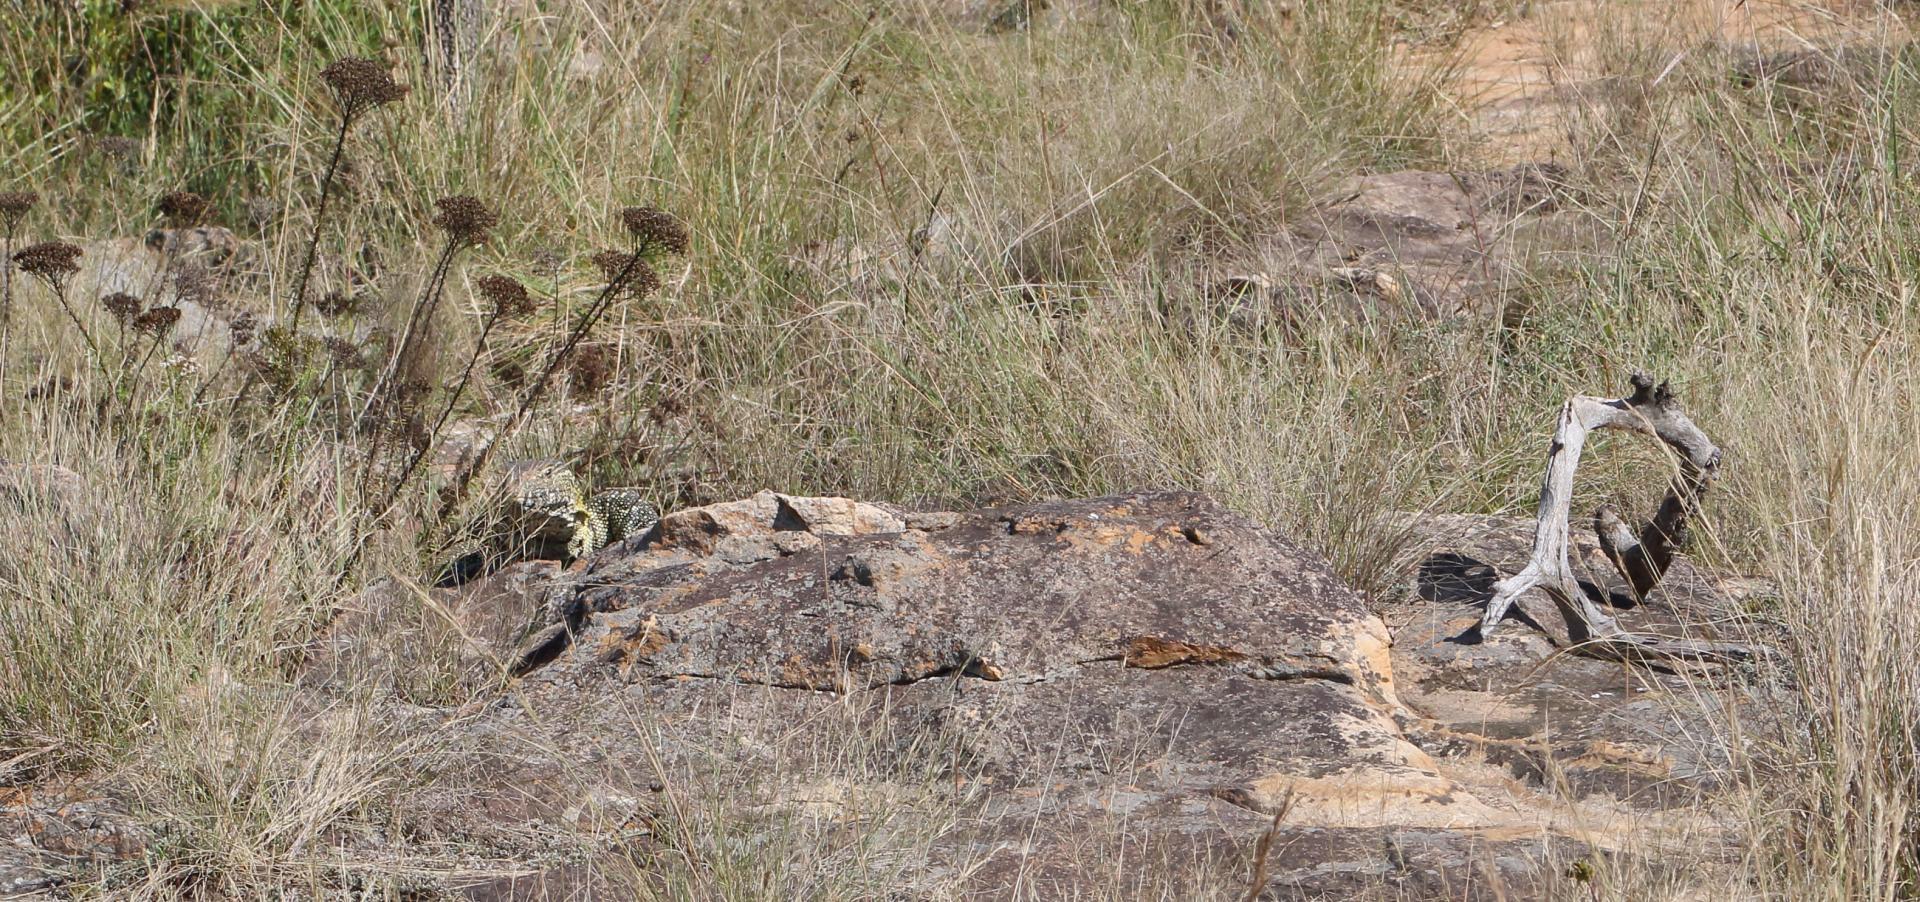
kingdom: Animalia
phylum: Chordata
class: Squamata
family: Varanidae
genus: Varanus
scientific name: Varanus niloticus
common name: Nile monitor
